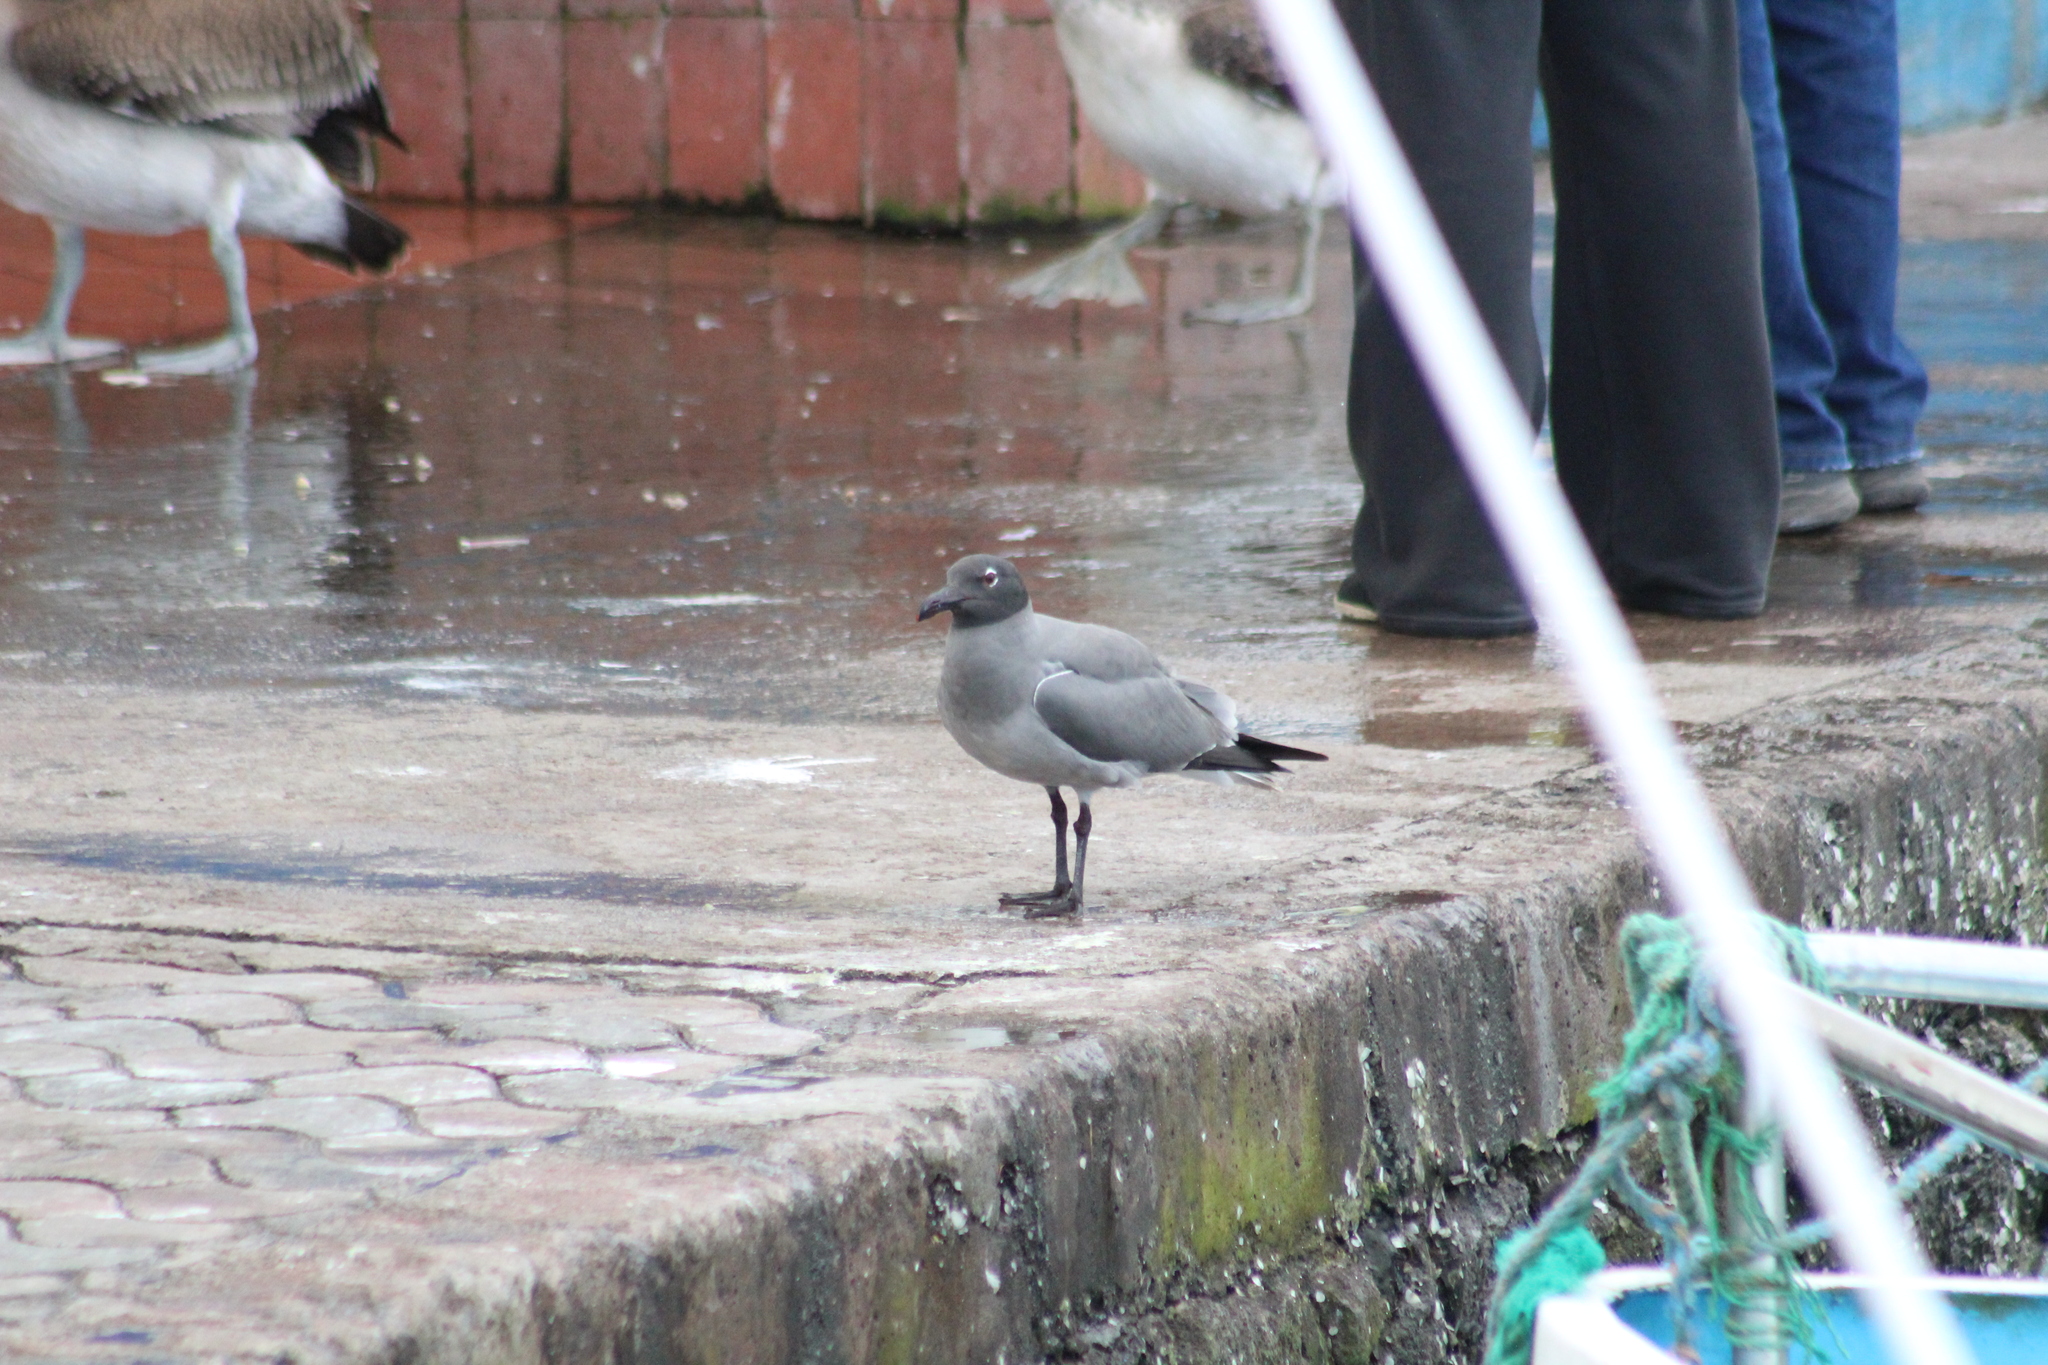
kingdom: Animalia
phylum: Chordata
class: Aves
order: Charadriiformes
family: Laridae
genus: Leucophaeus
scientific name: Leucophaeus fuliginosus
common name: Lava gull
